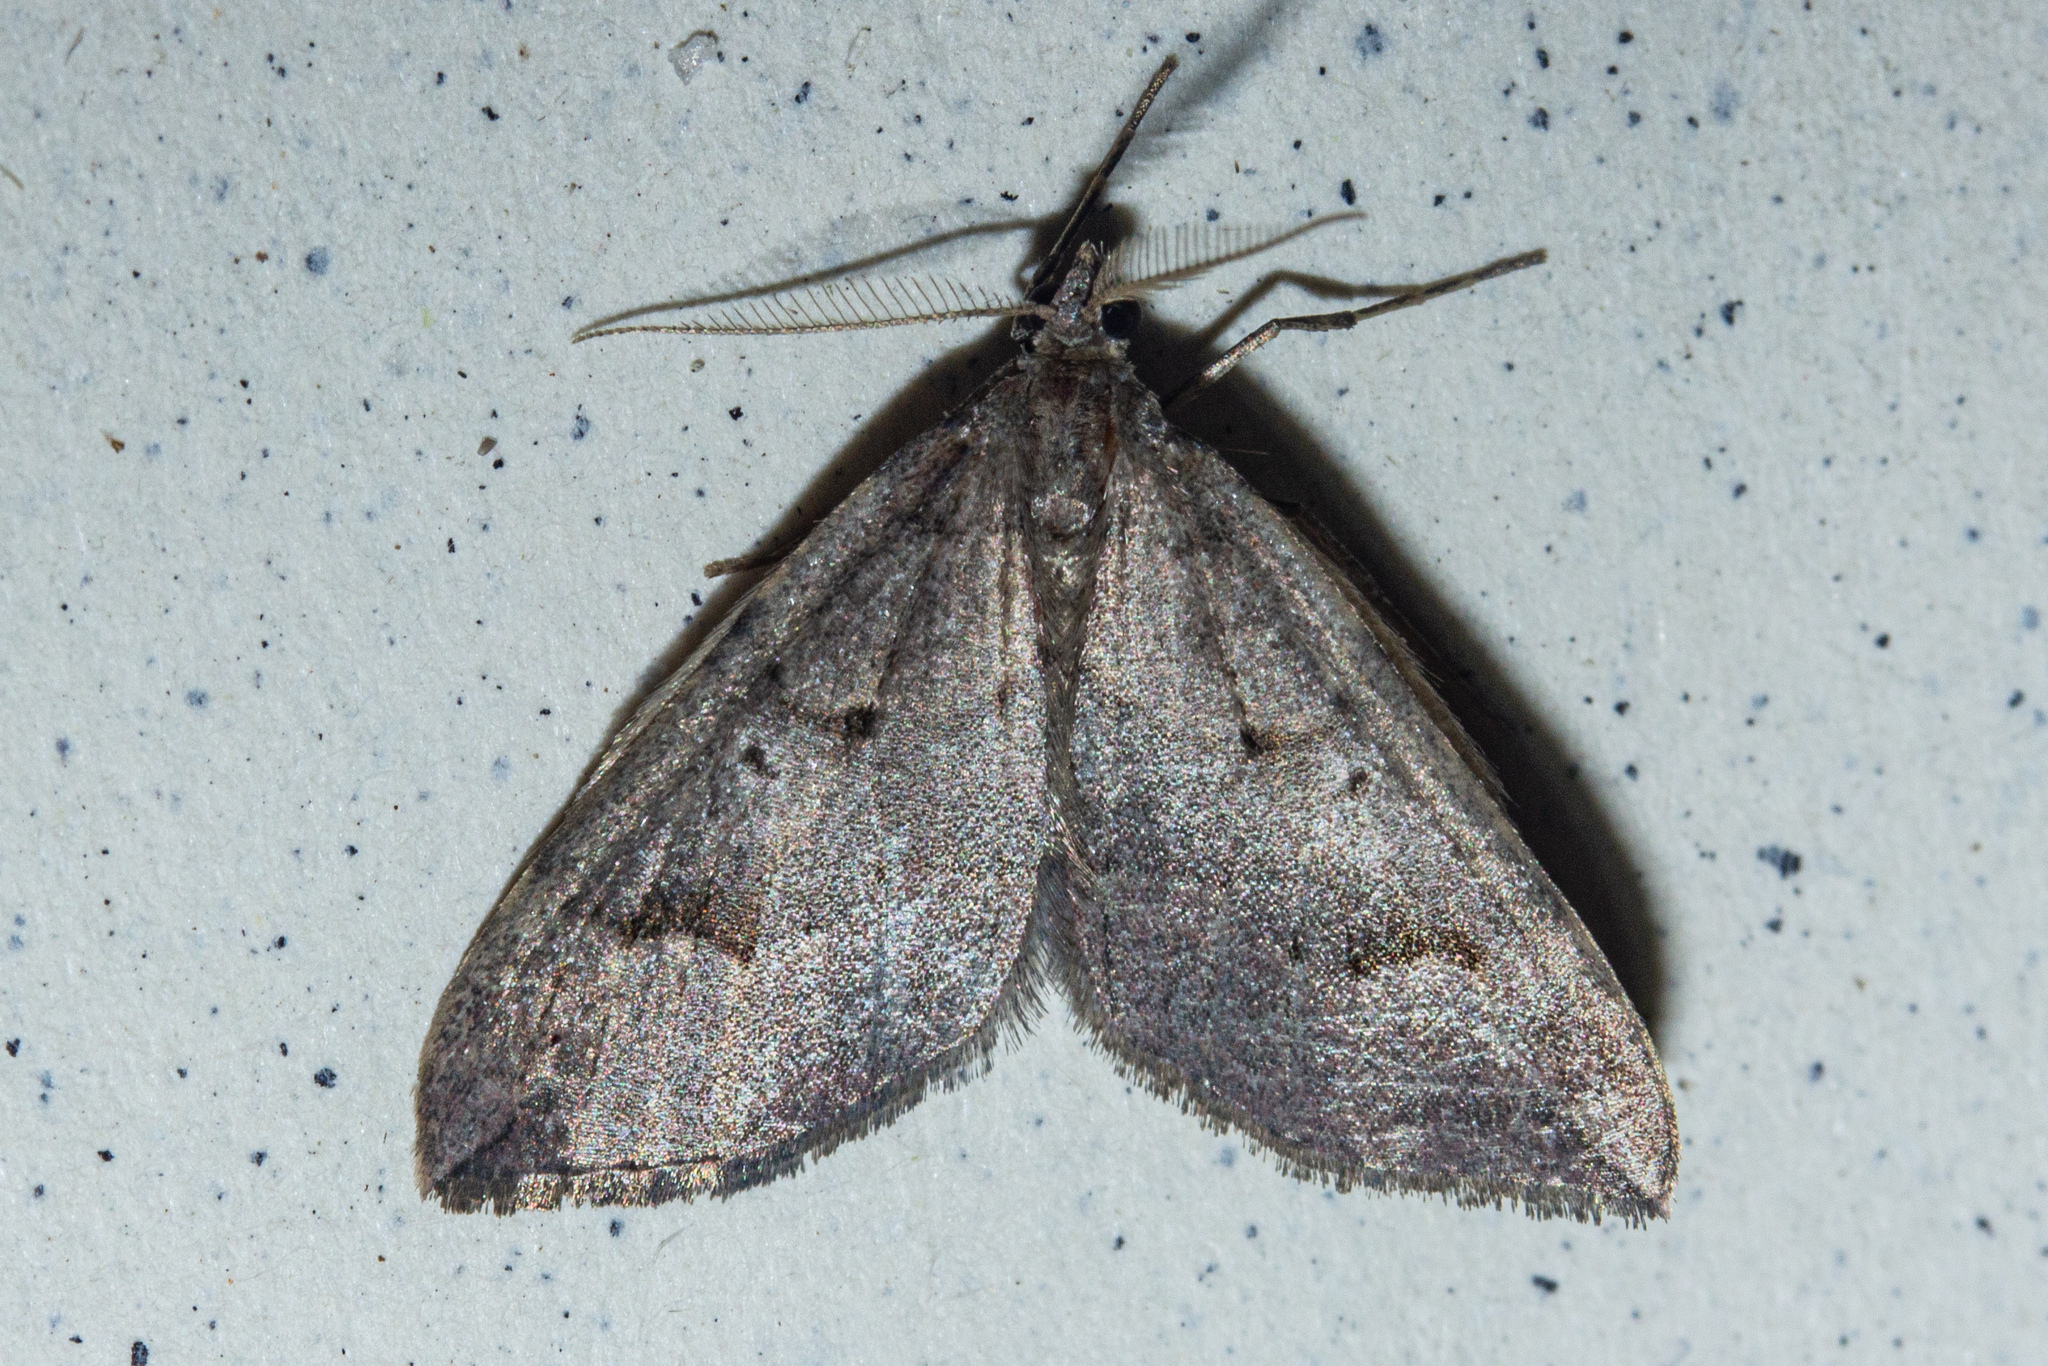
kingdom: Animalia
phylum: Arthropoda
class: Insecta
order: Lepidoptera
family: Geometridae
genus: Epyaxa
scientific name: Epyaxa rosearia
